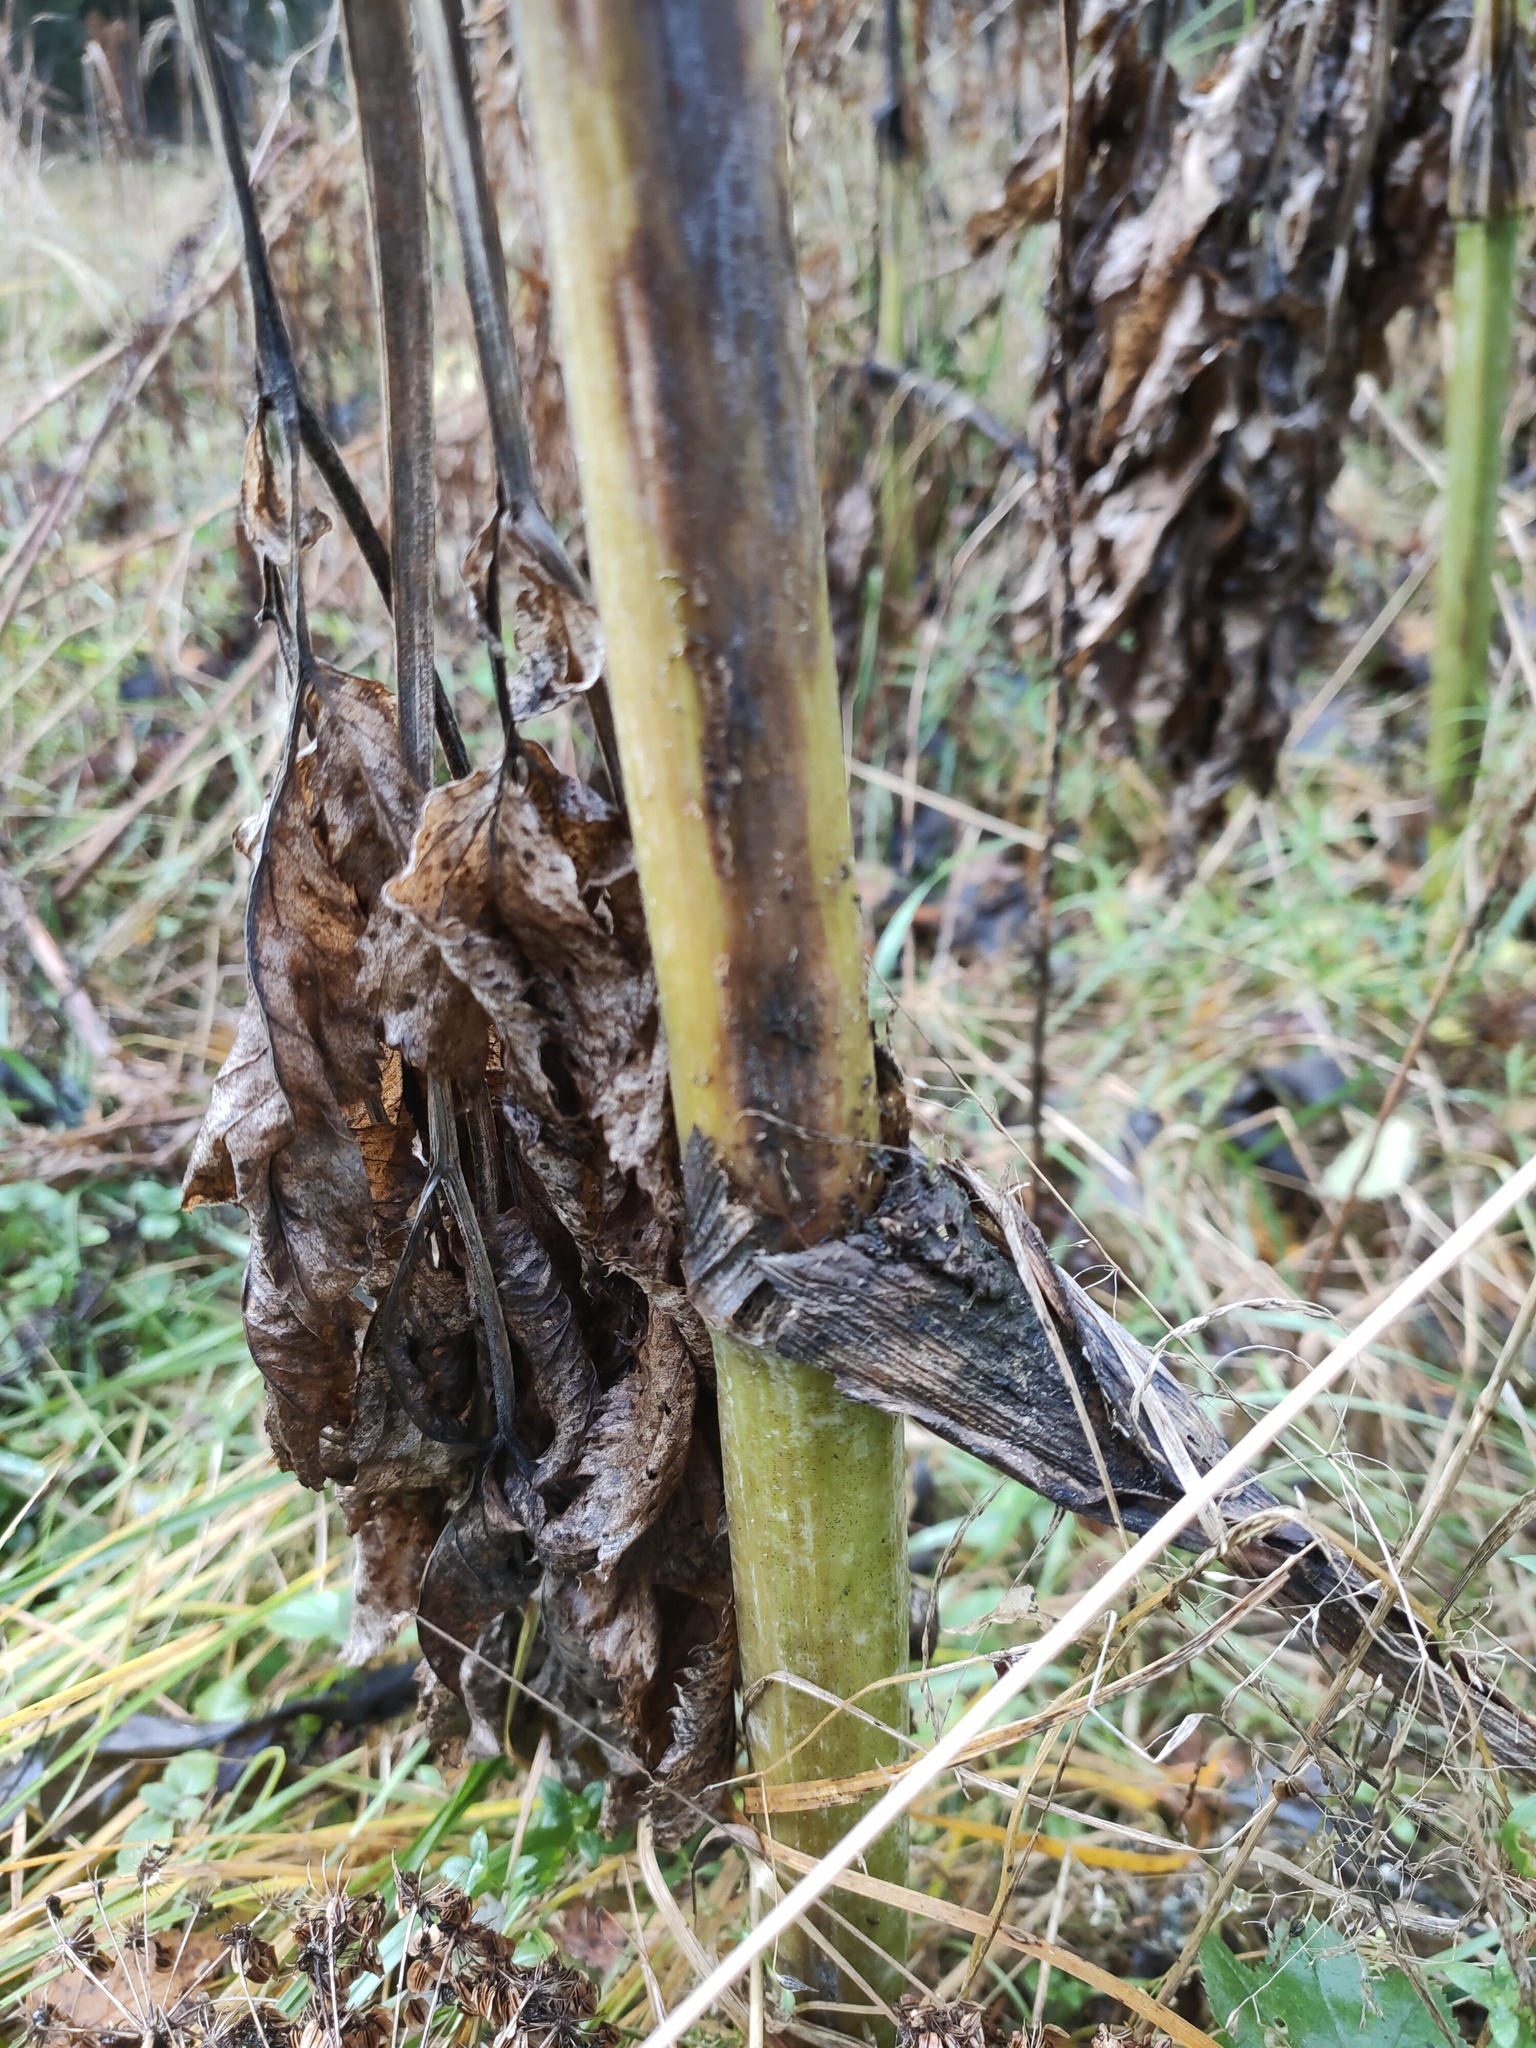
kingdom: Plantae
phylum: Tracheophyta
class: Magnoliopsida
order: Apiales
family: Apiaceae
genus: Angelica
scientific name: Angelica archangelica
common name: Garden angelica
